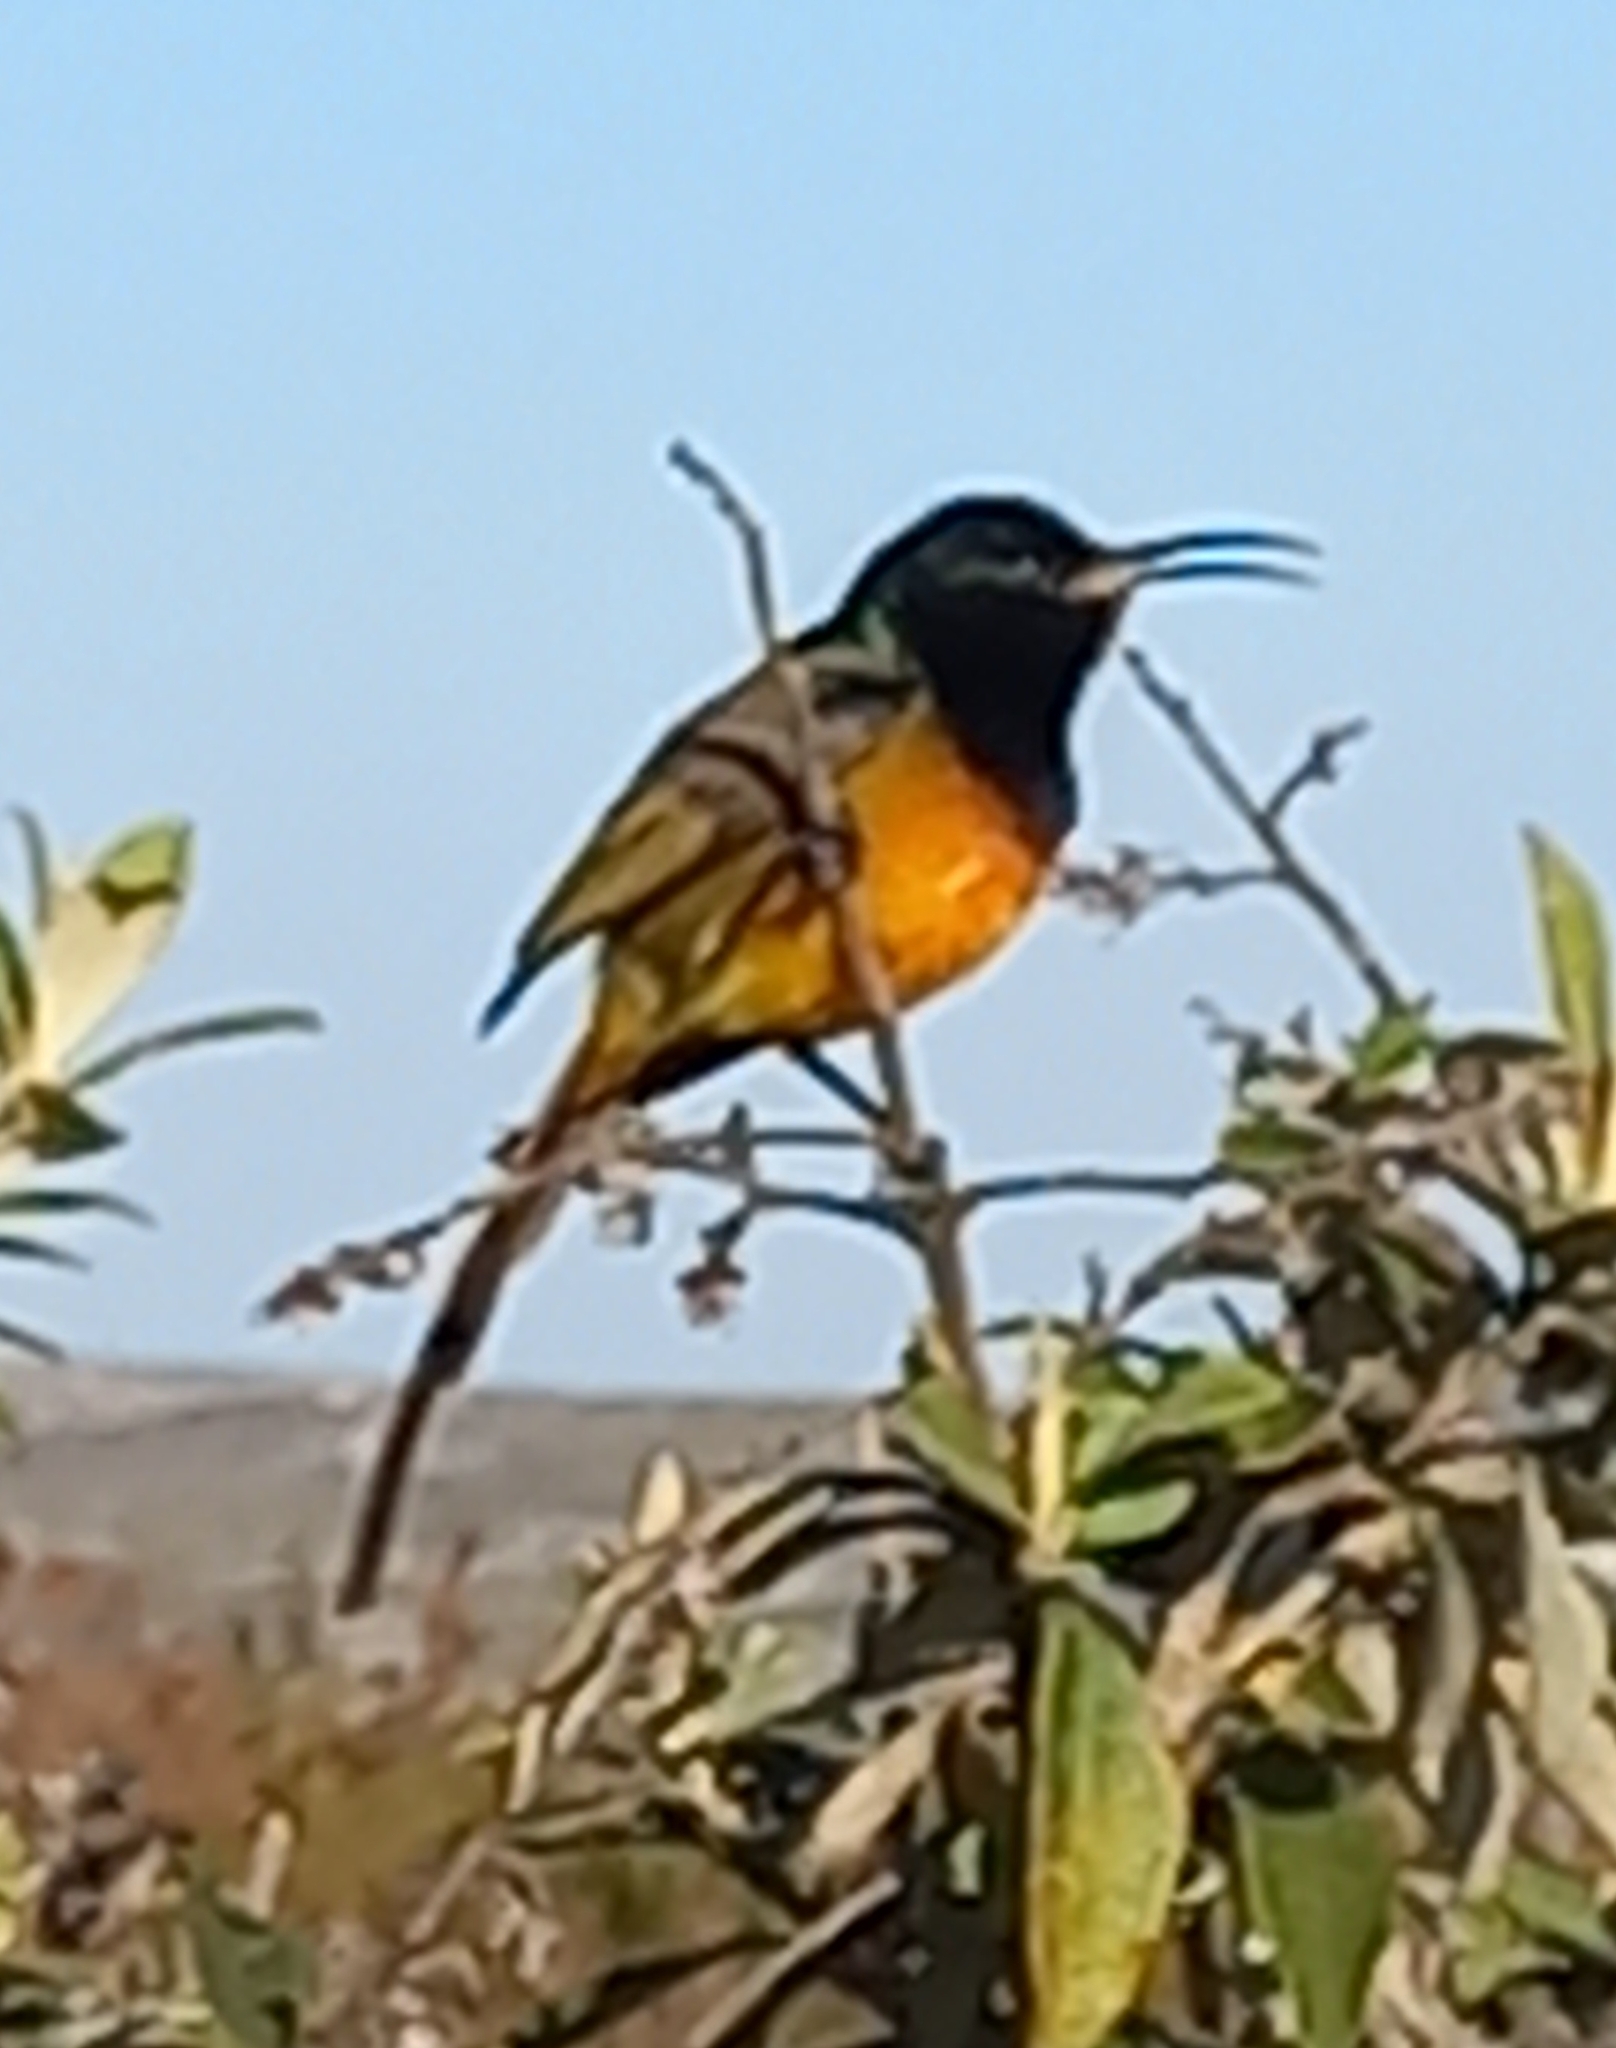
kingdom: Animalia
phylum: Chordata
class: Aves
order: Passeriformes
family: Nectariniidae
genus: Anthobaphes
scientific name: Anthobaphes violacea
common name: Orange-breasted sunbird
